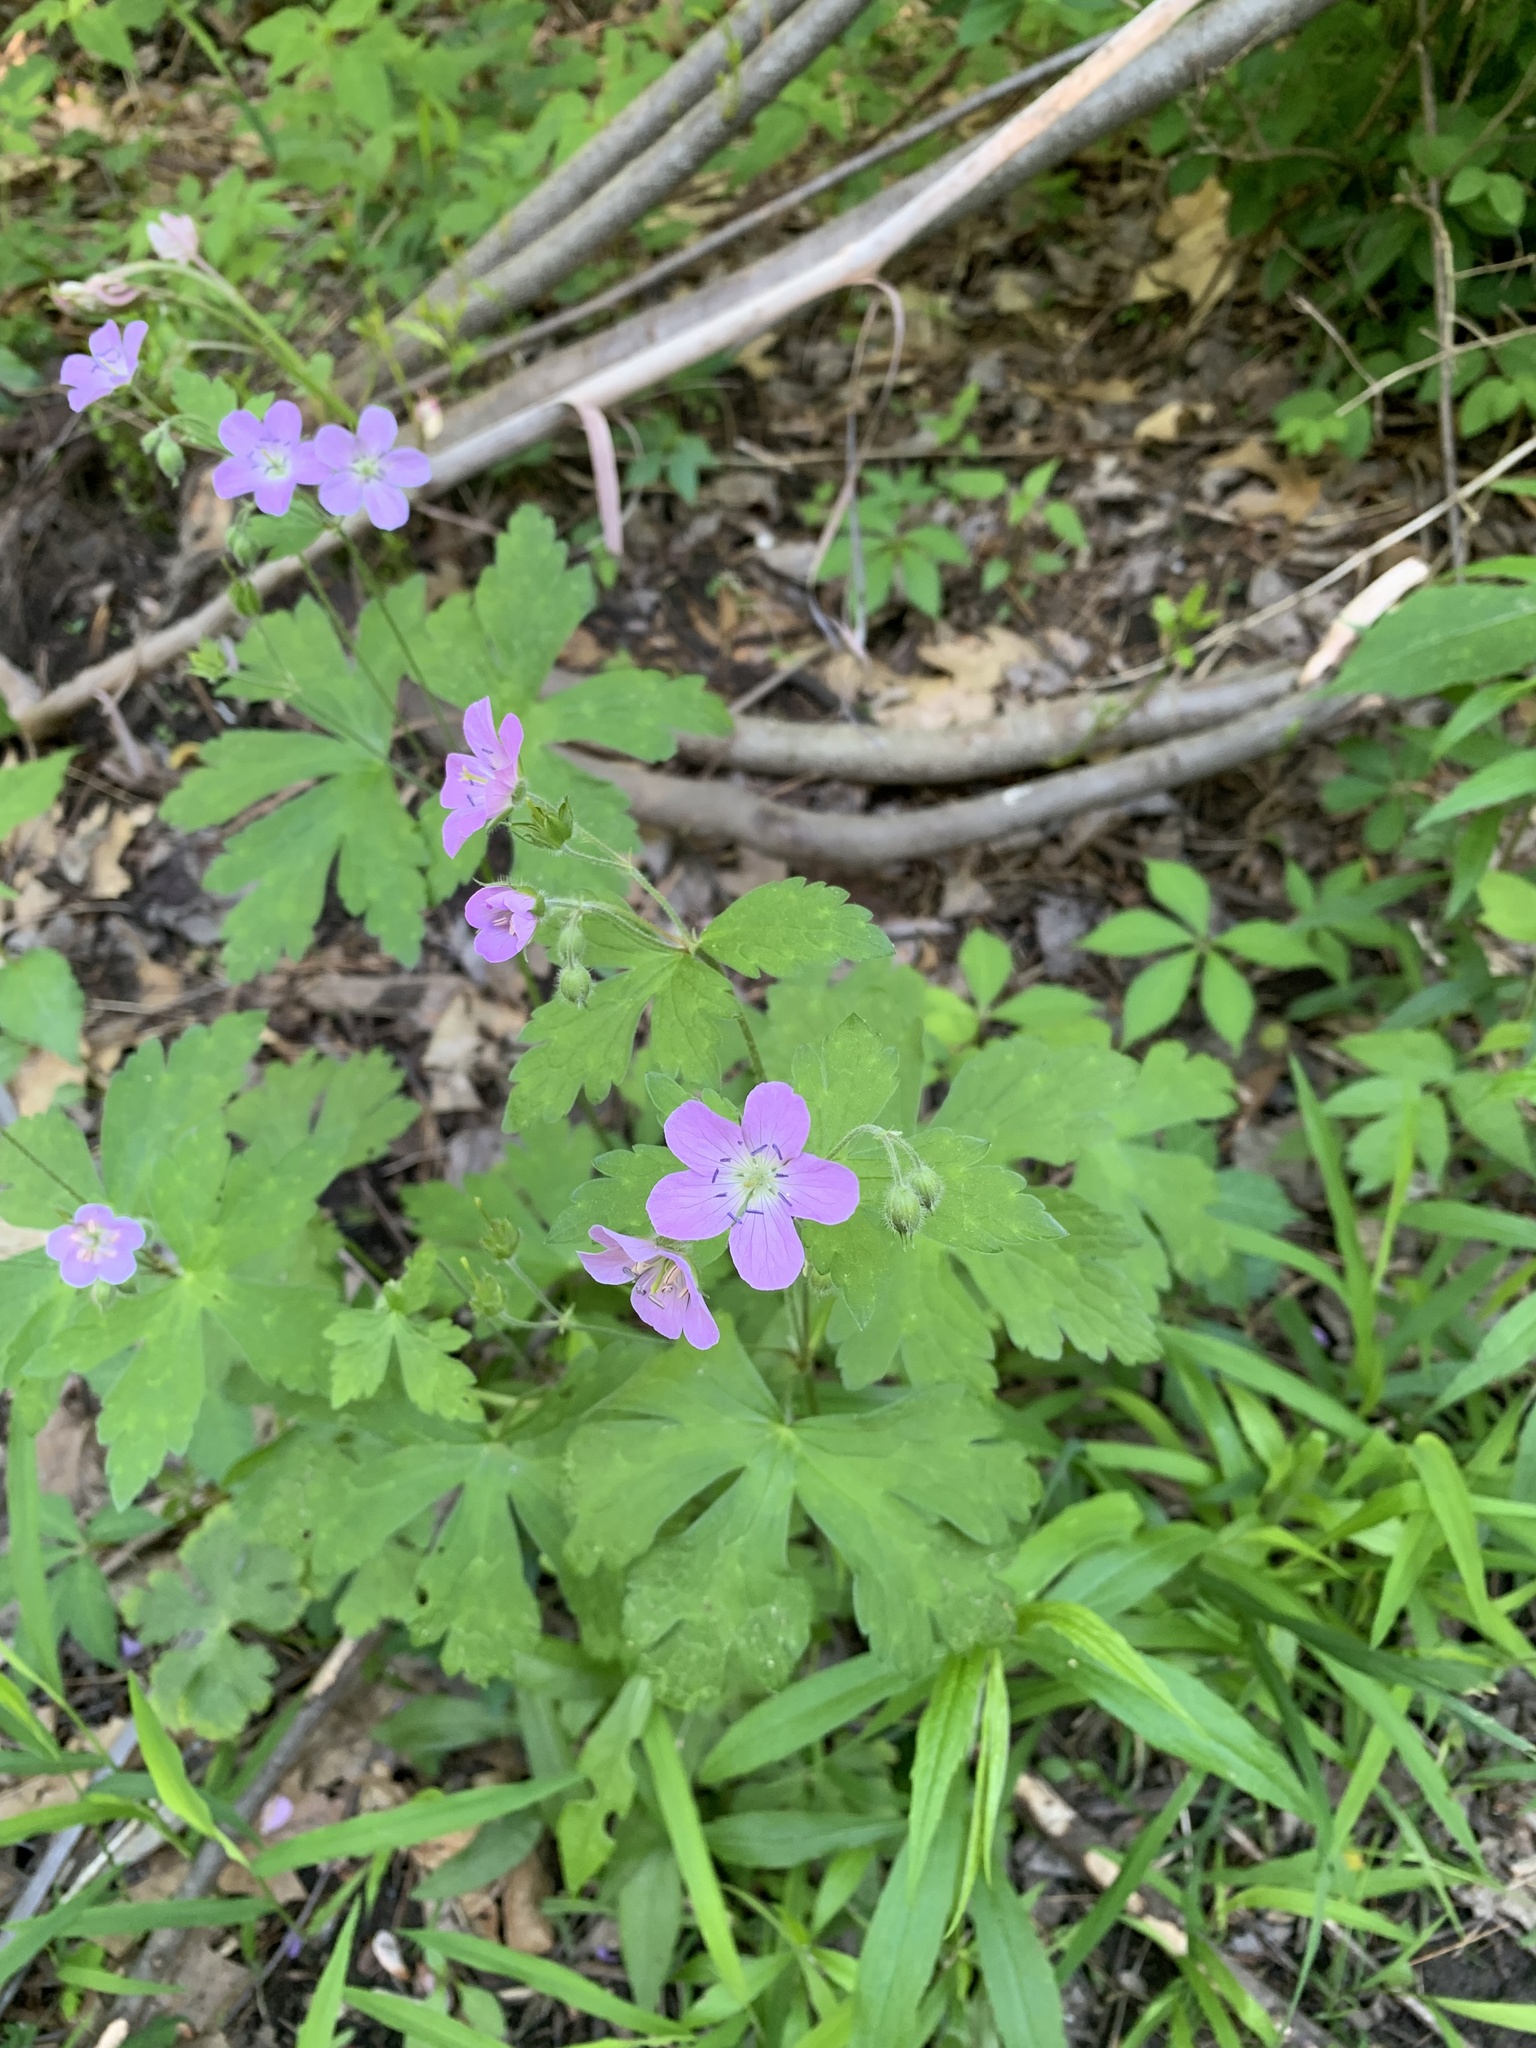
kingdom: Plantae
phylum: Tracheophyta
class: Magnoliopsida
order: Geraniales
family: Geraniaceae
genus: Geranium
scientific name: Geranium maculatum
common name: Spotted geranium
